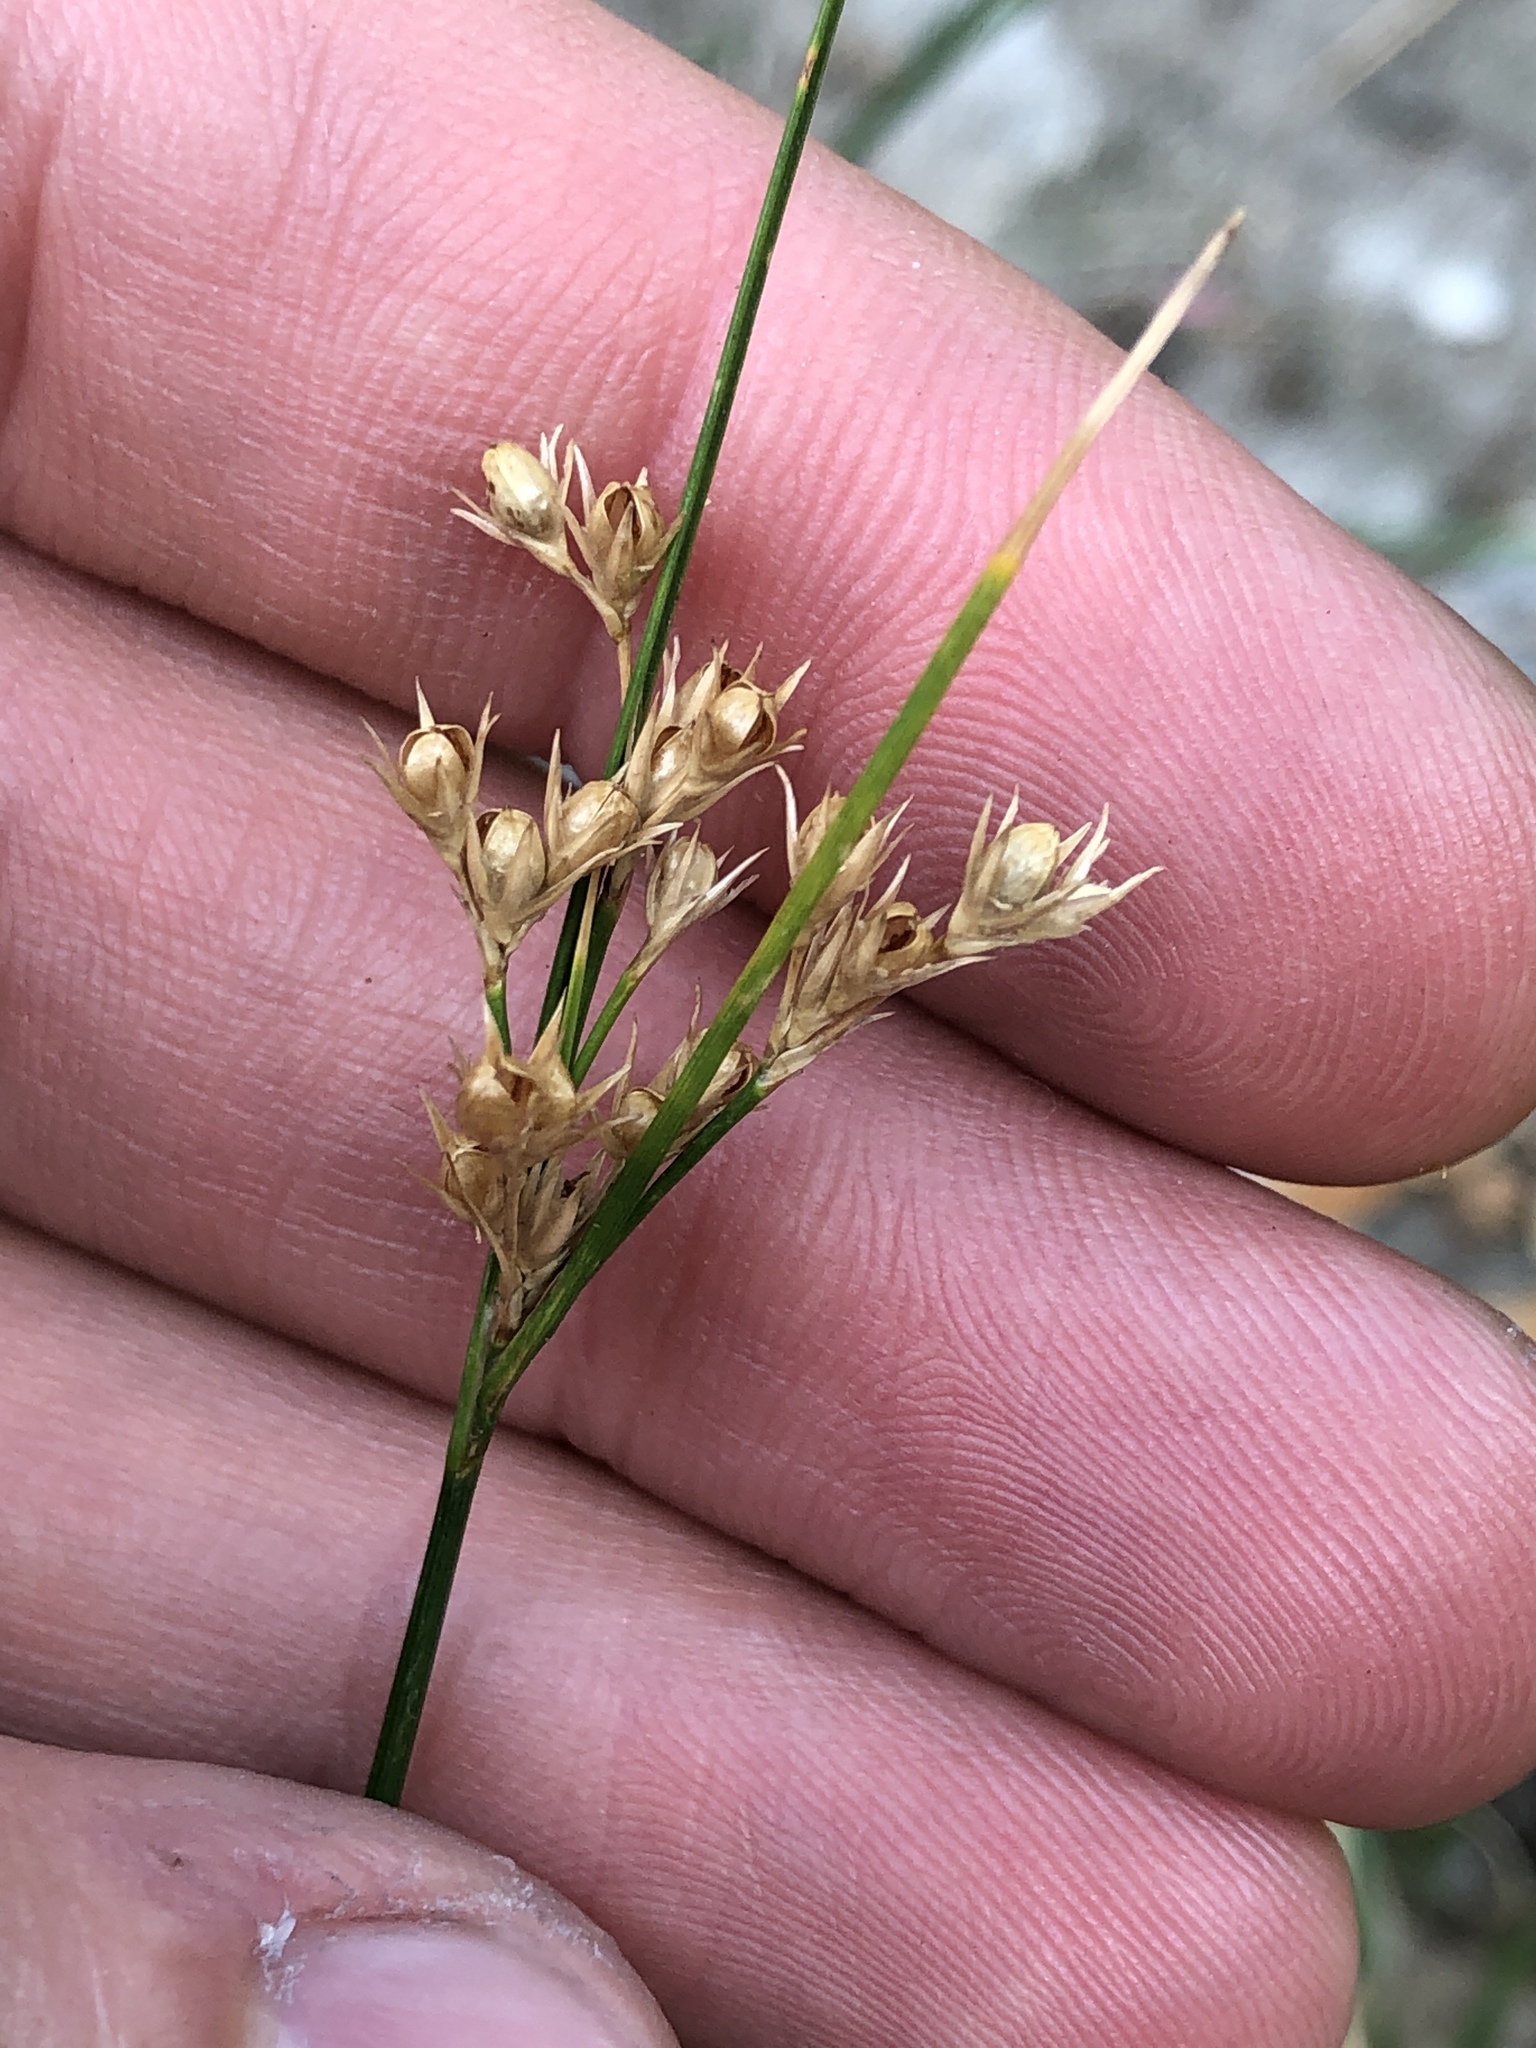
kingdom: Plantae
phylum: Tracheophyta
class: Liliopsida
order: Poales
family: Juncaceae
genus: Juncus
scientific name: Juncus tenuis
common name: Slender rush
